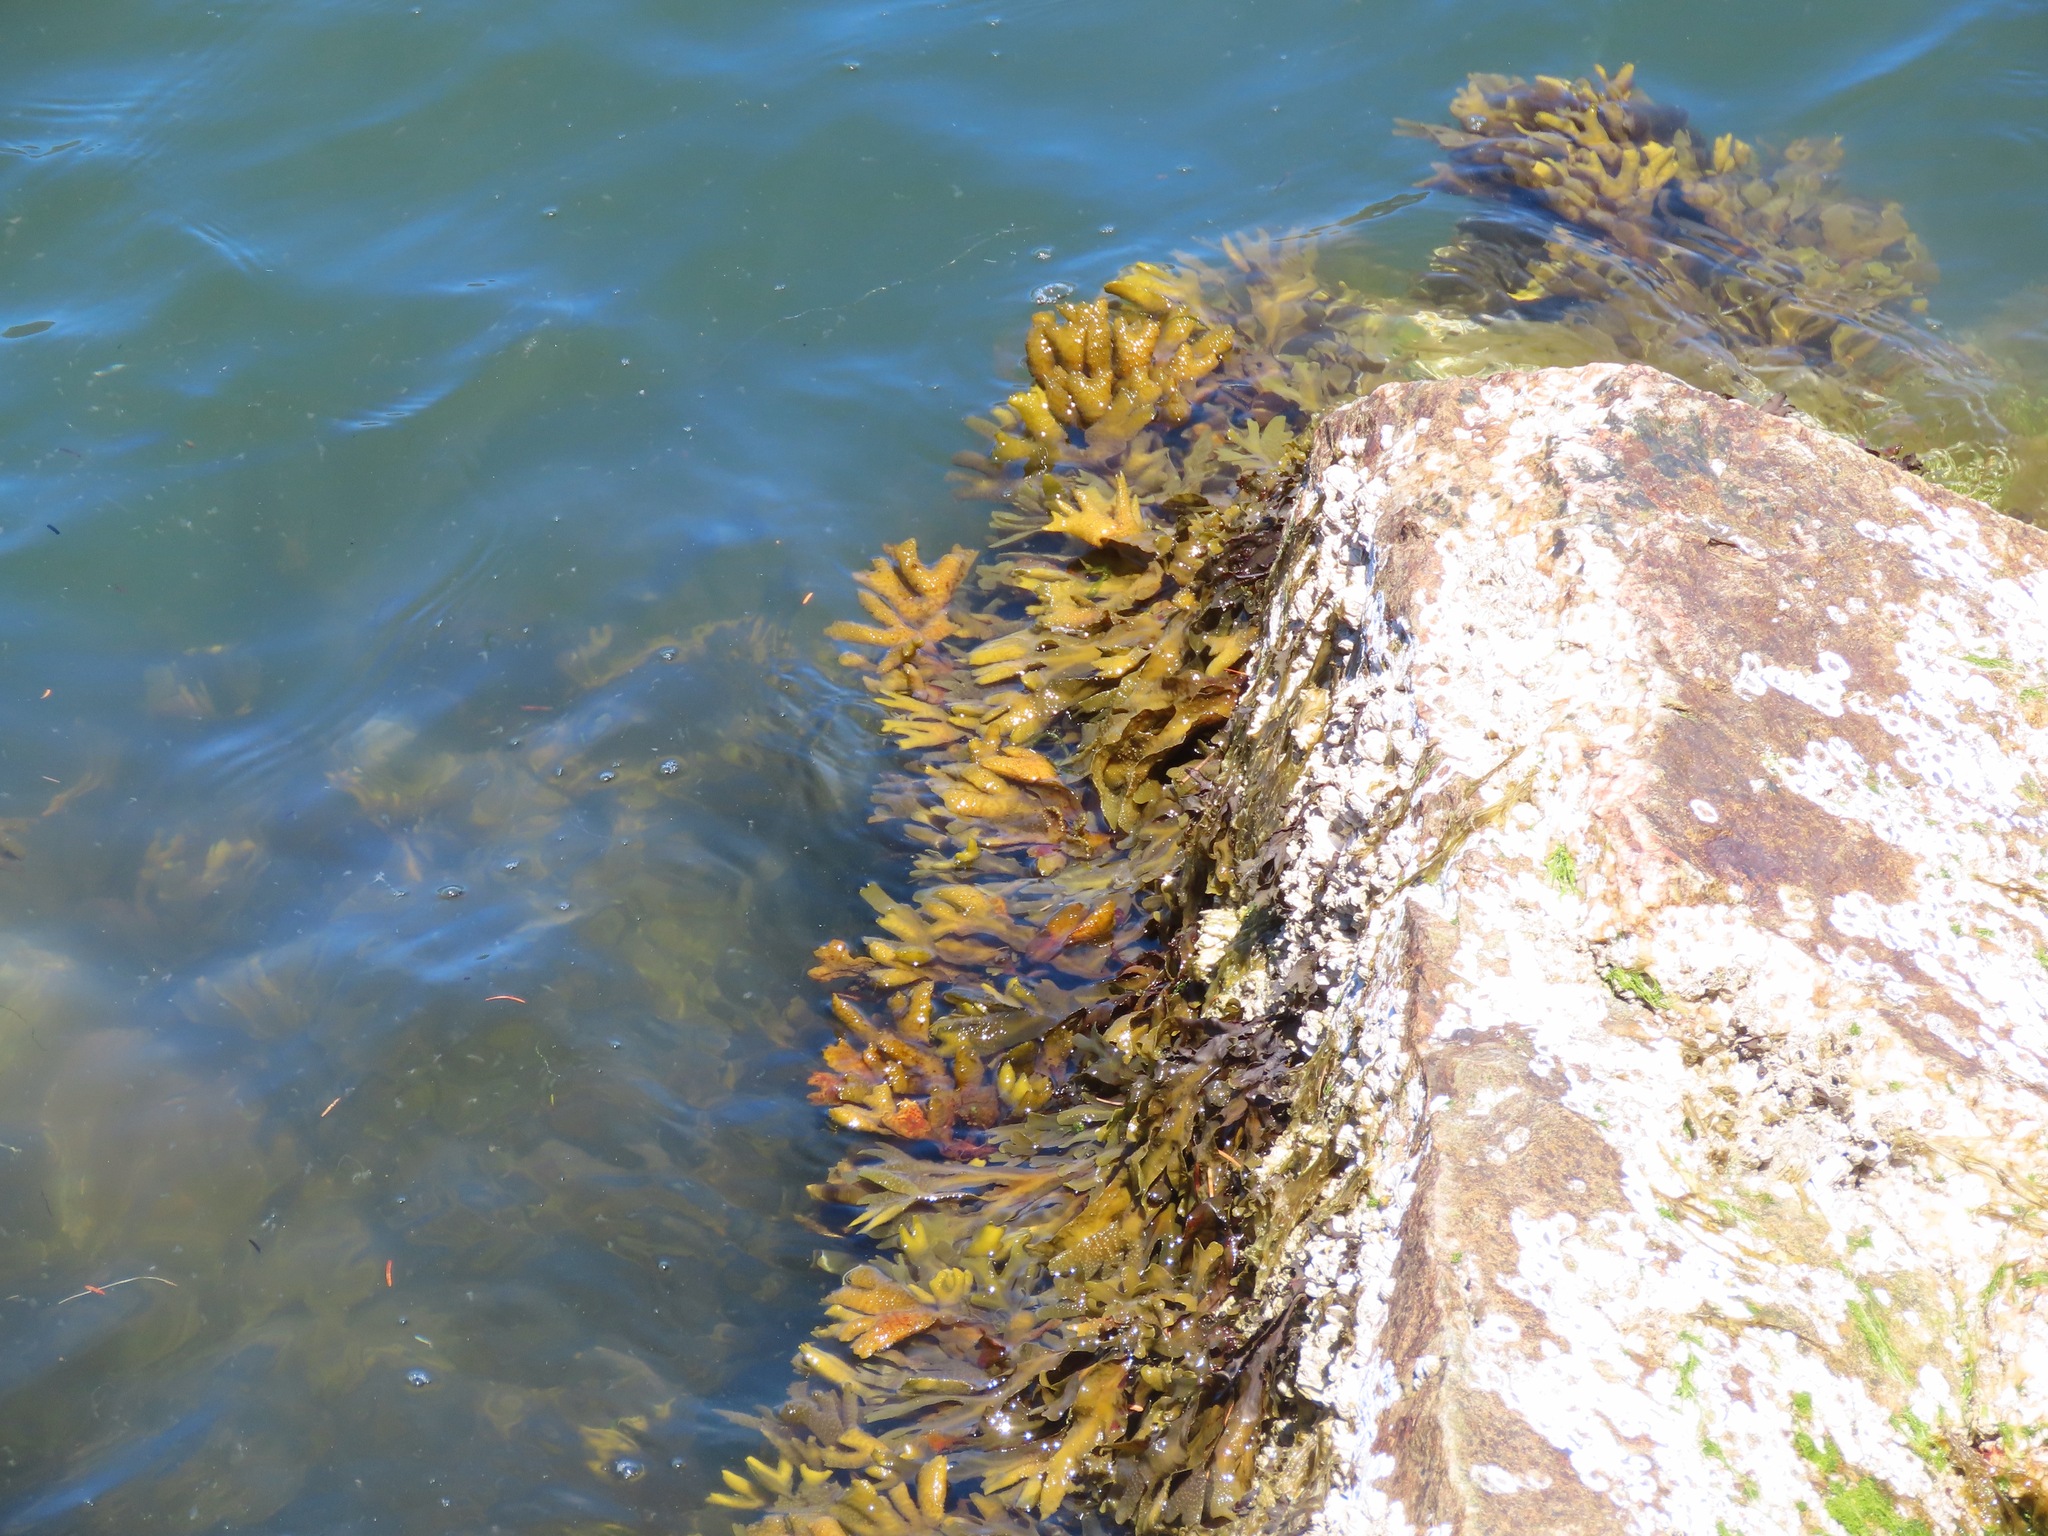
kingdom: Chromista
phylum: Ochrophyta
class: Phaeophyceae
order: Fucales
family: Fucaceae
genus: Fucus
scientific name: Fucus distichus
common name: Rockweed
